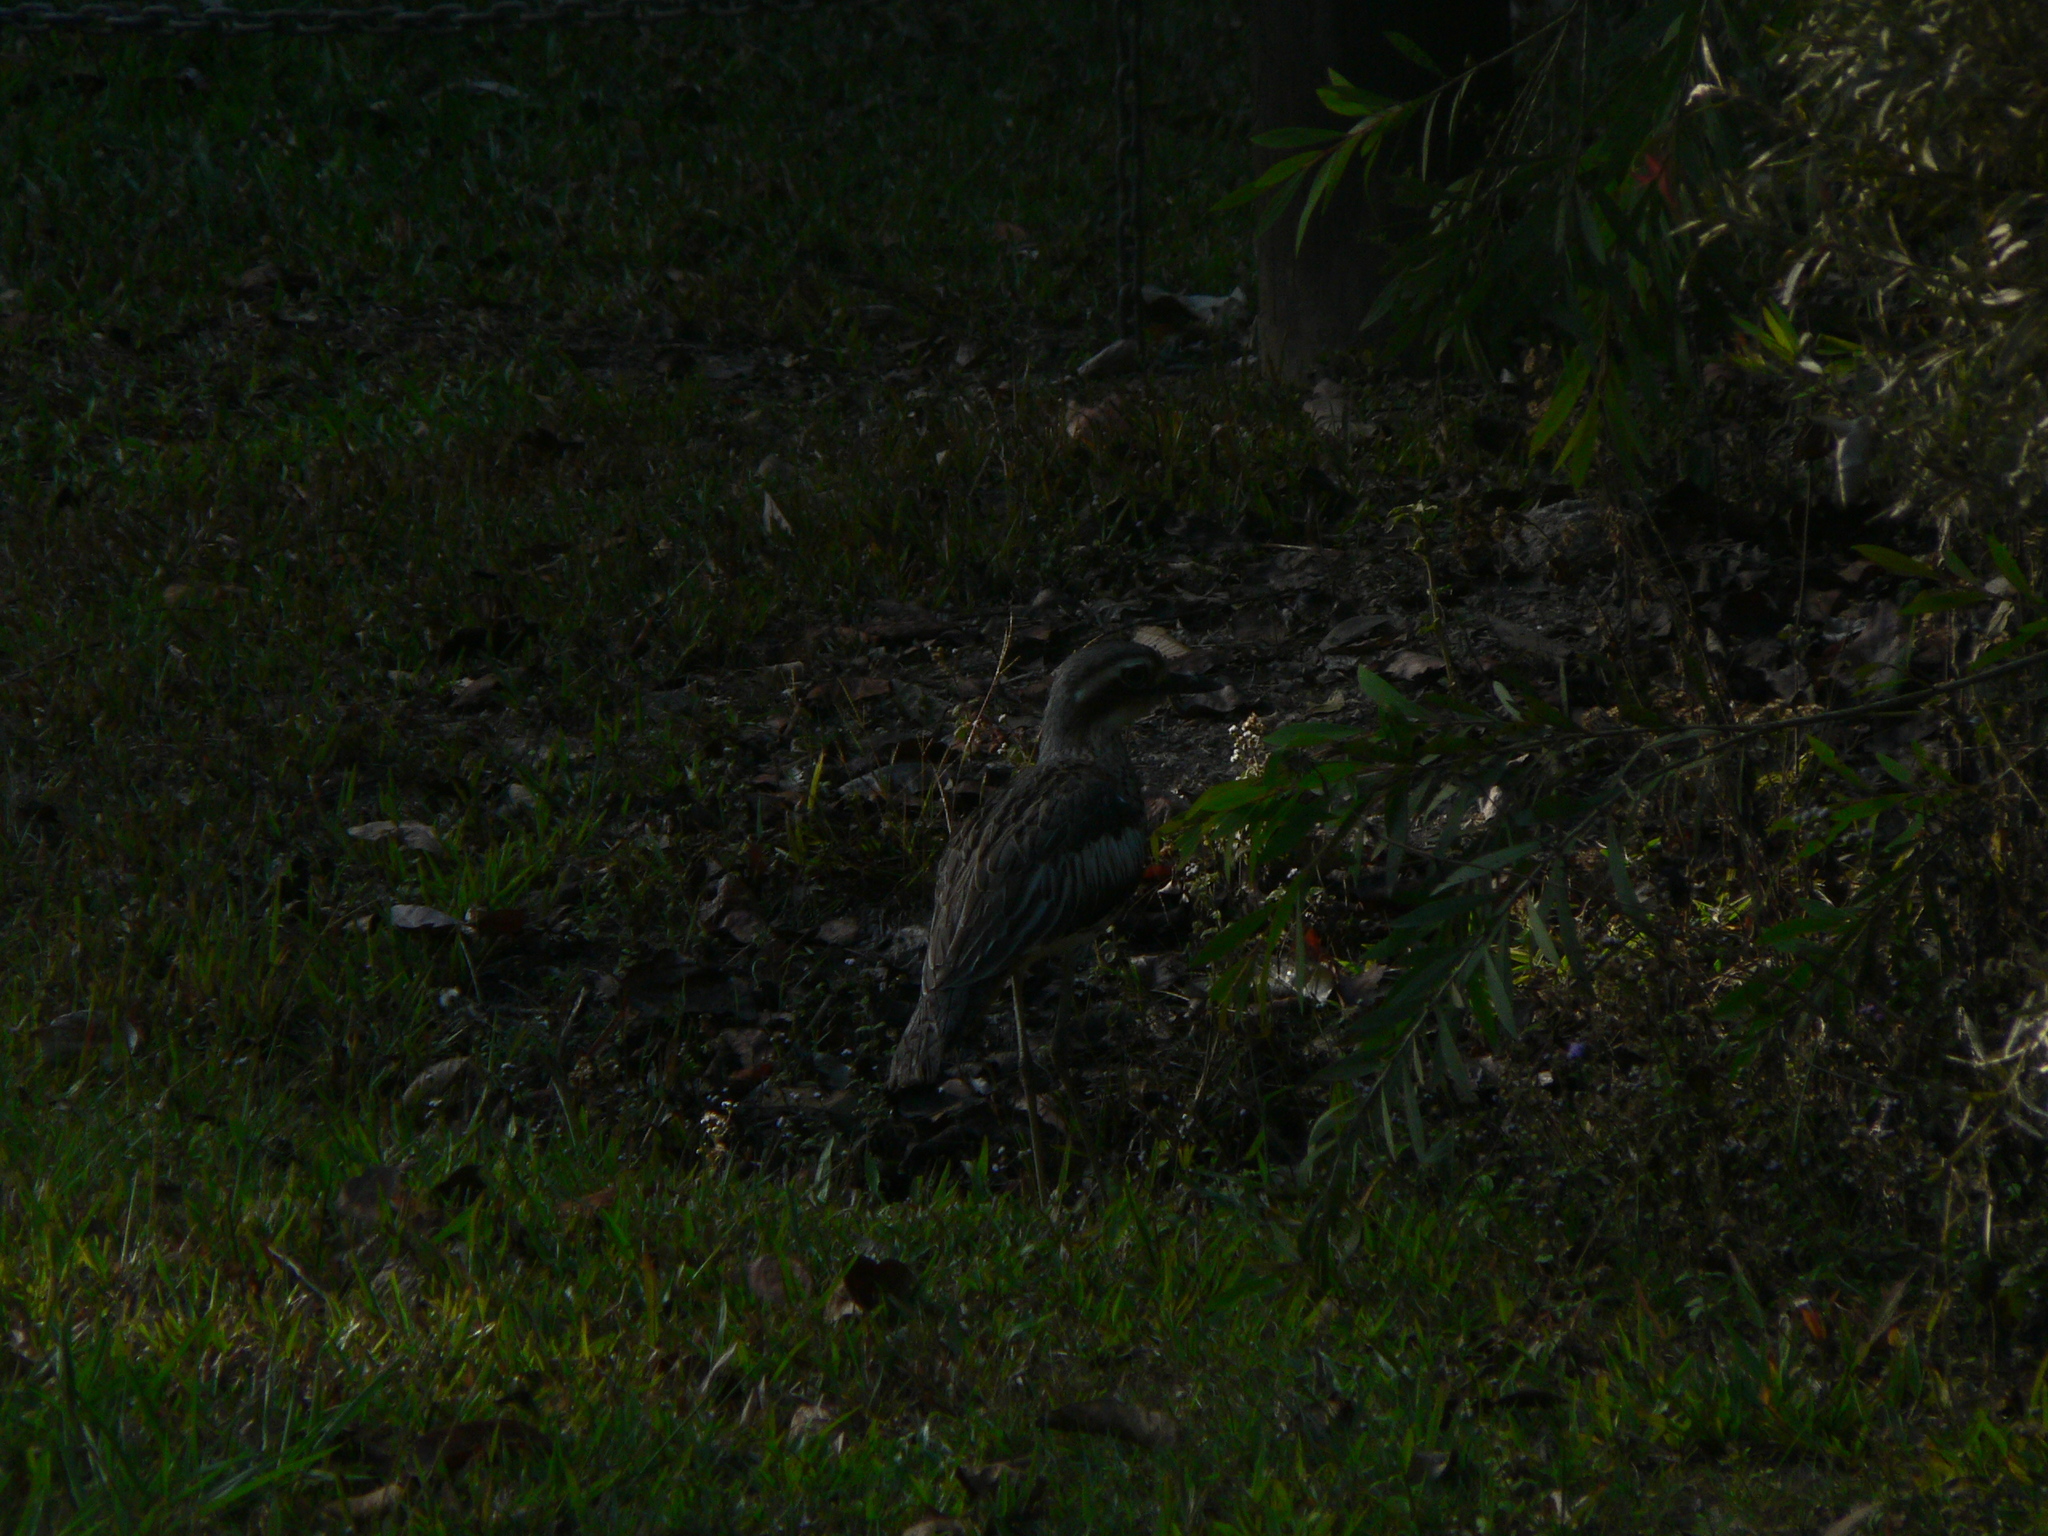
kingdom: Animalia
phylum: Chordata
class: Aves
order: Charadriiformes
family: Burhinidae
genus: Burhinus
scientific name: Burhinus grallarius
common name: Bush stone-curlew
